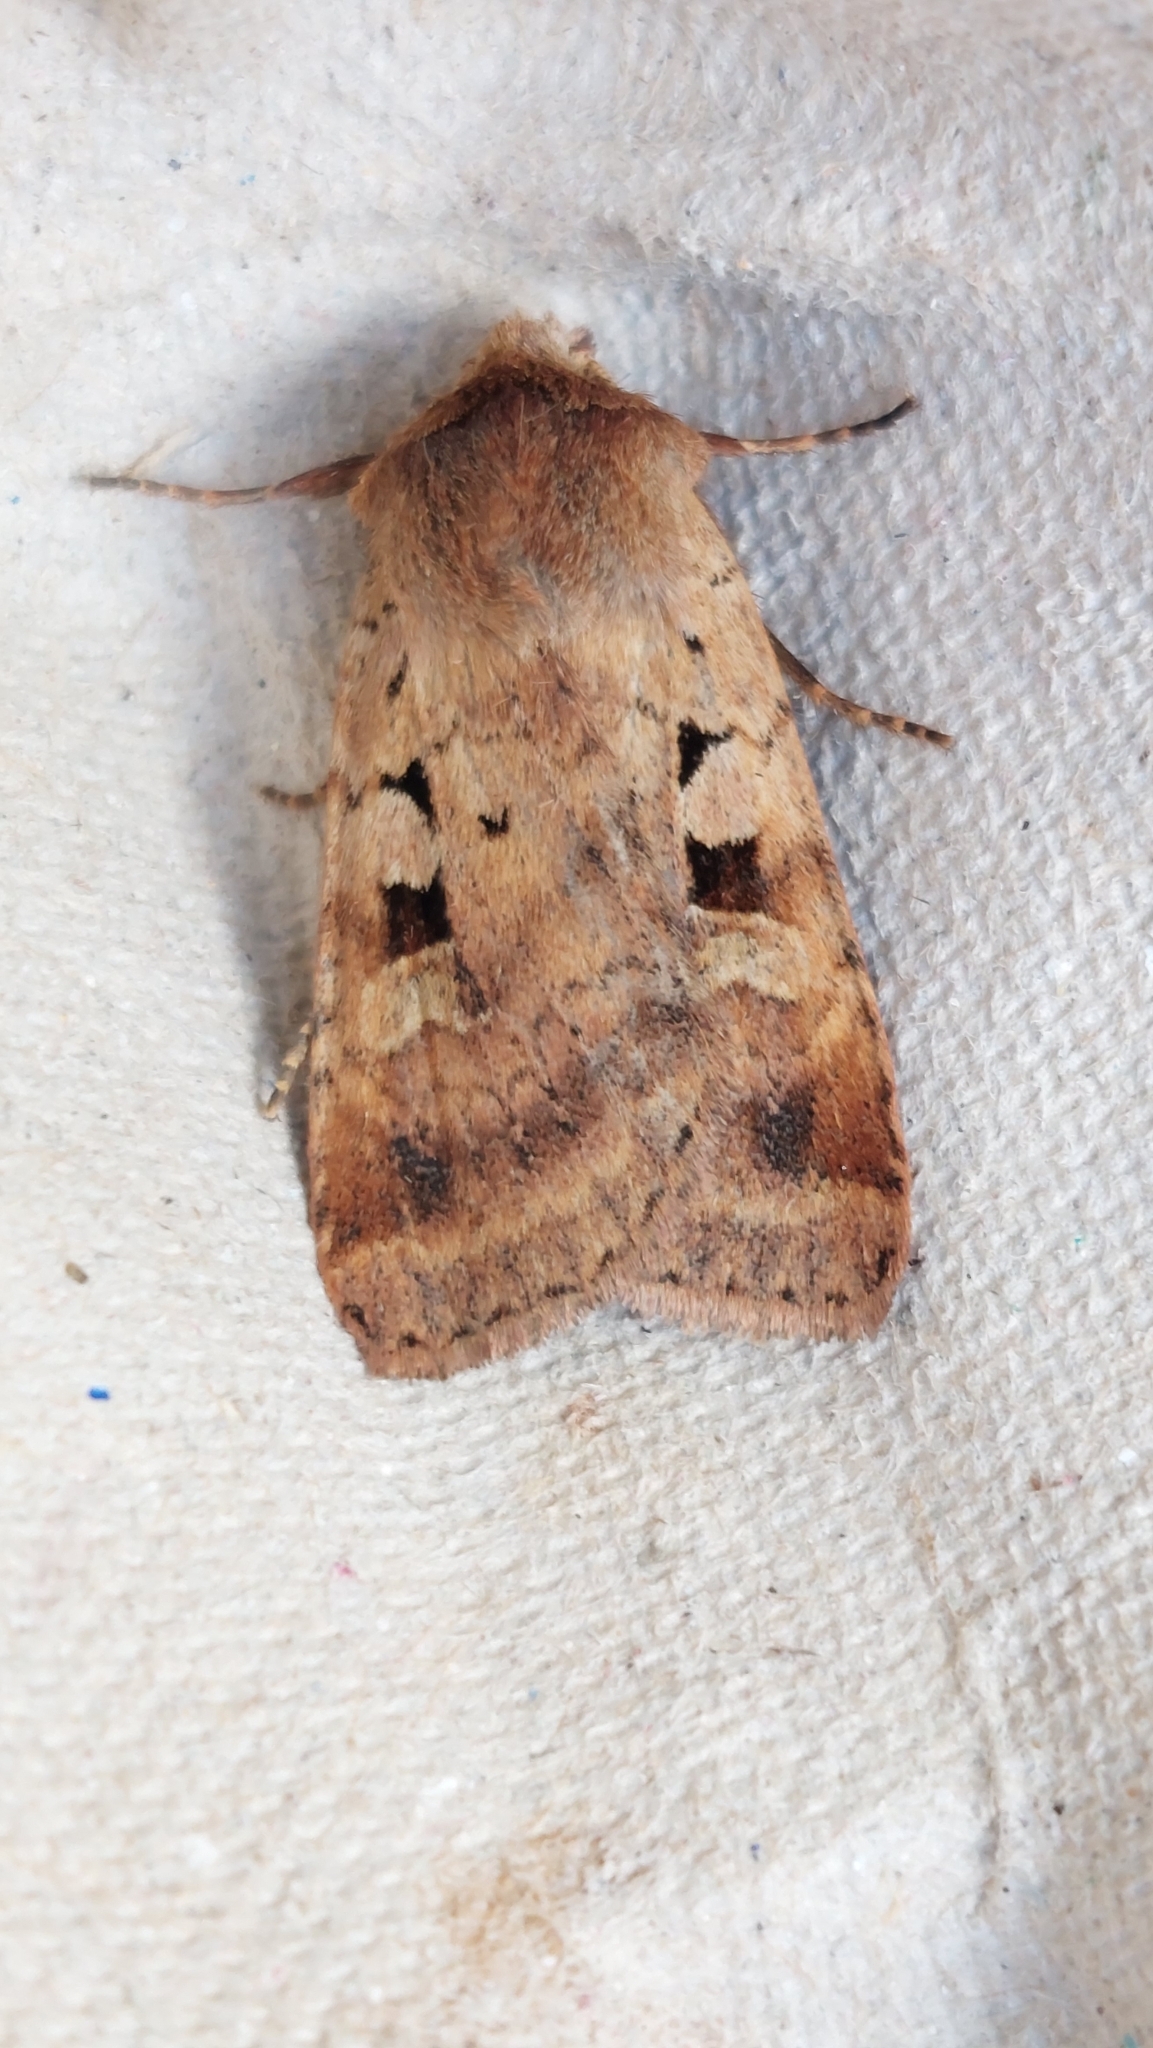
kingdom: Animalia
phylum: Arthropoda
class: Insecta
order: Lepidoptera
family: Noctuidae
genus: Diarsia
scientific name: Diarsia mendica
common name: Ingrailed clay
